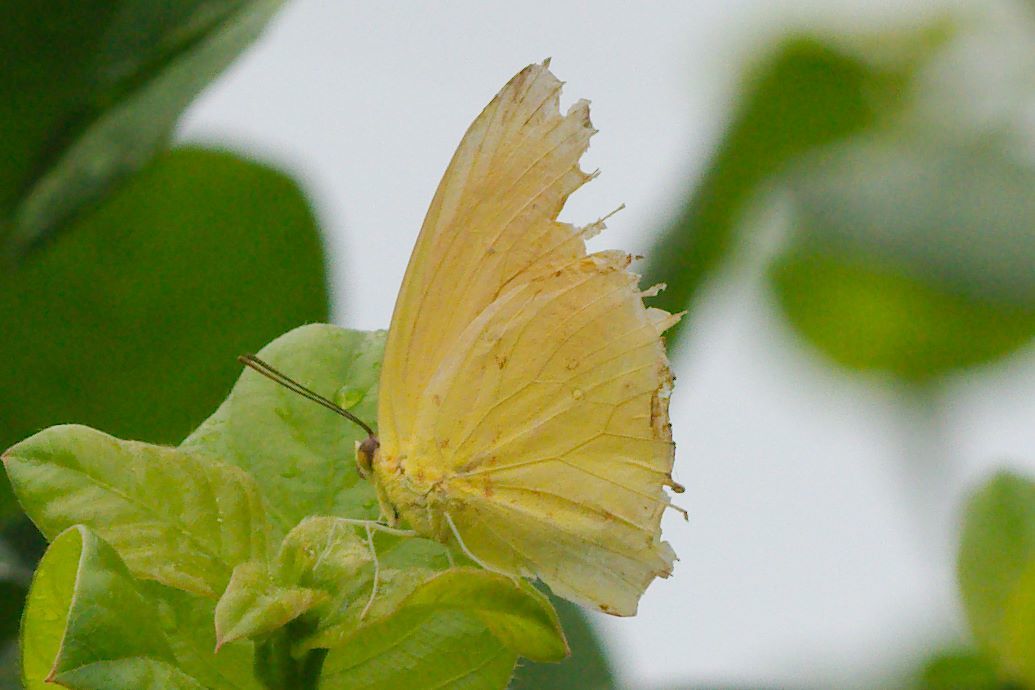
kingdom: Animalia
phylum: Arthropoda
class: Insecta
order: Lepidoptera
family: Pieridae
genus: Phoebis
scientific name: Phoebis agarithe
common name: Large orange sulphur
